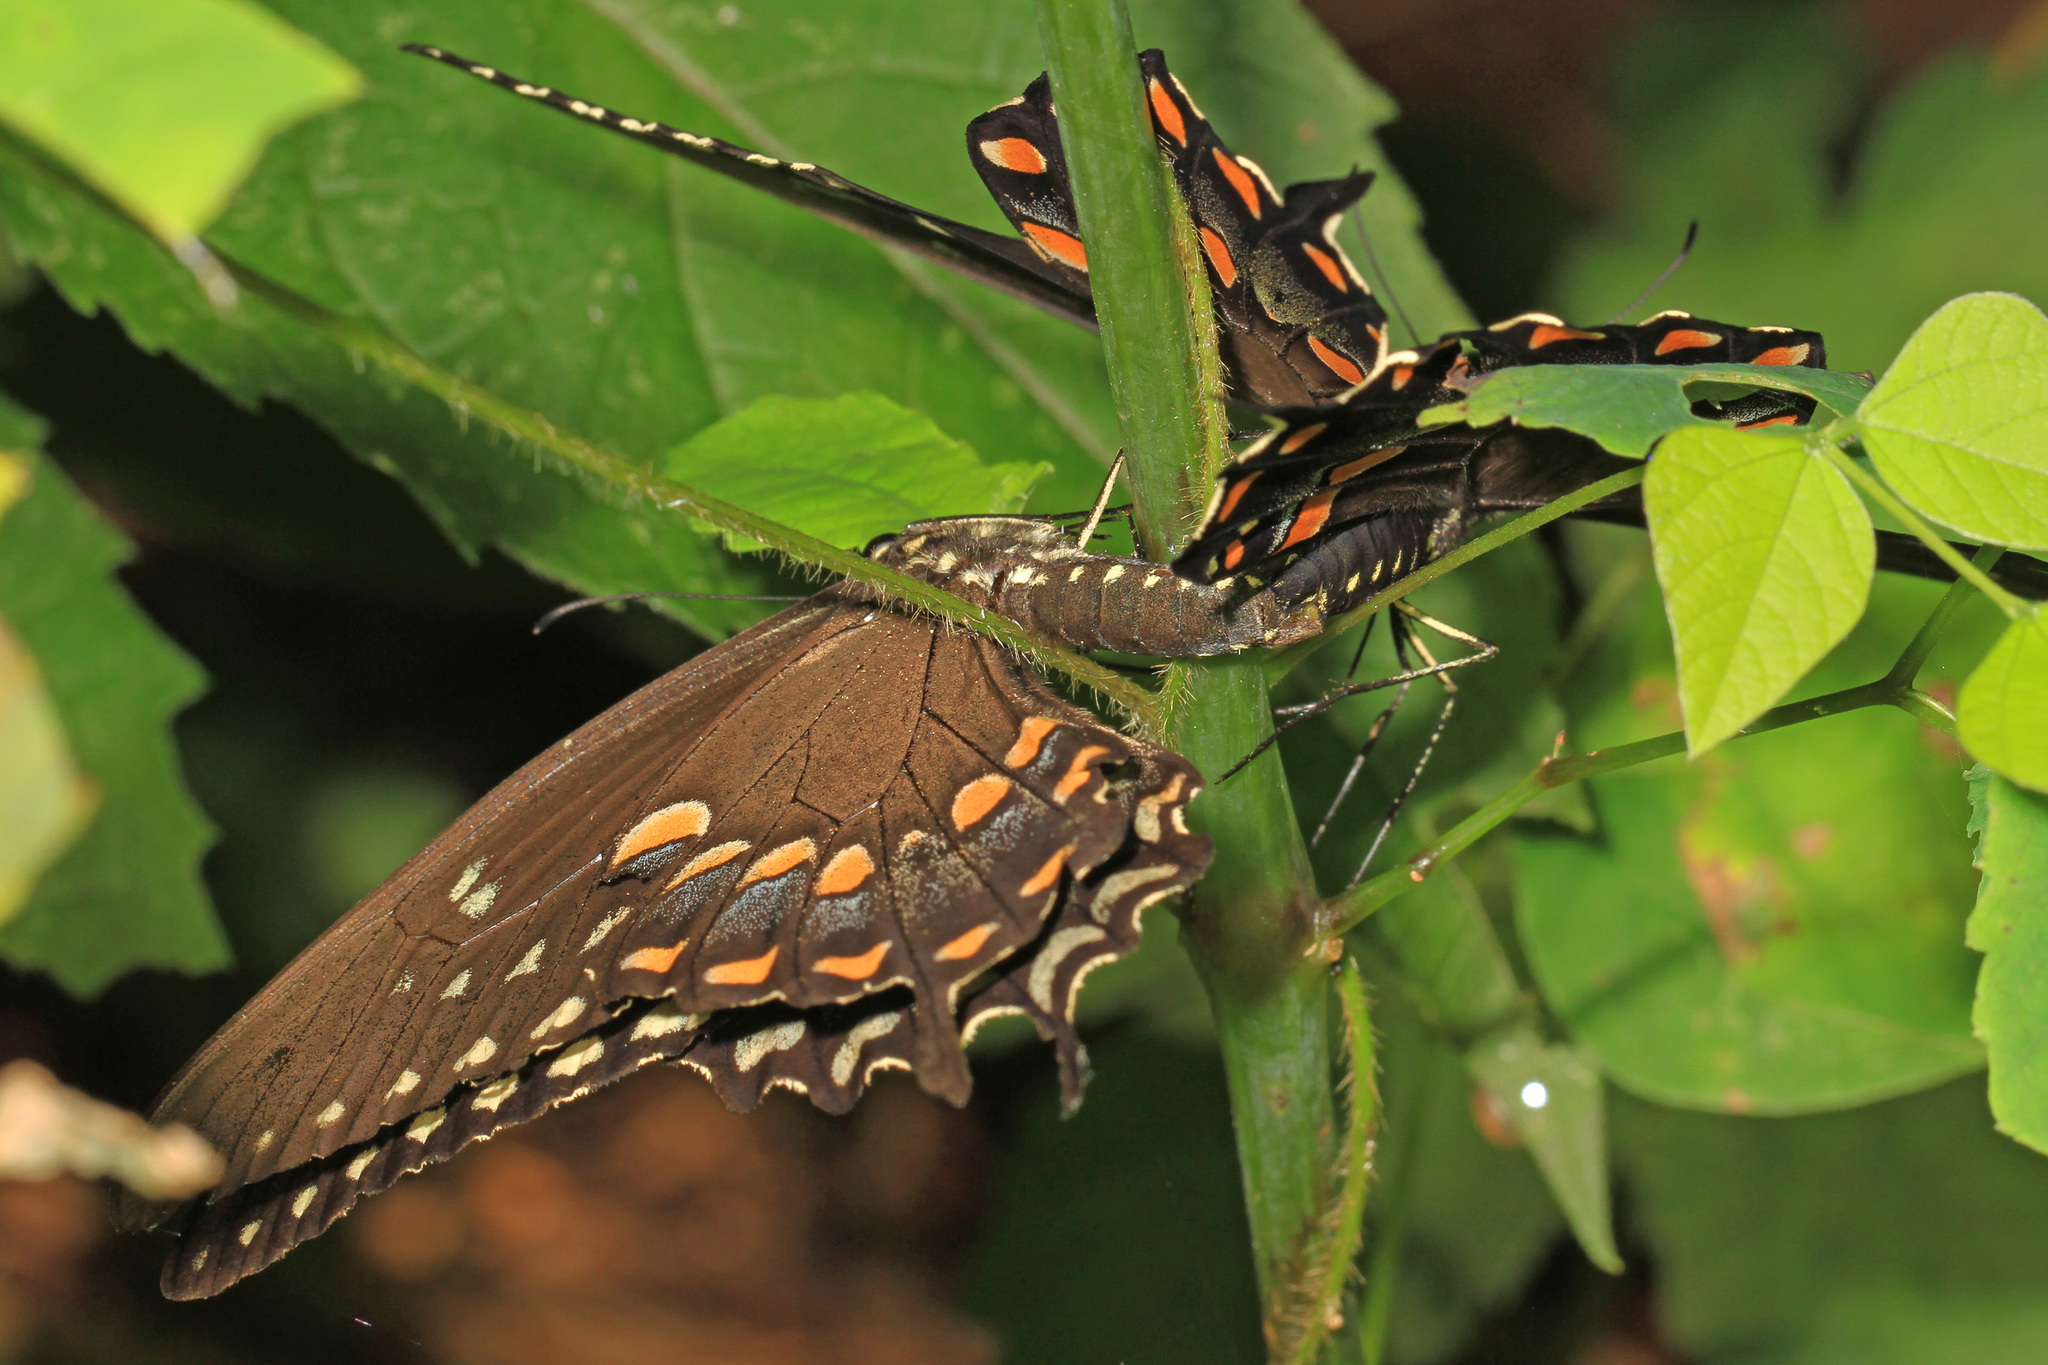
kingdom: Animalia
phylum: Arthropoda
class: Insecta
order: Lepidoptera
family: Papilionidae
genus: Papilio
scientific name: Papilio troilus
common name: Spicebush swallowtail
